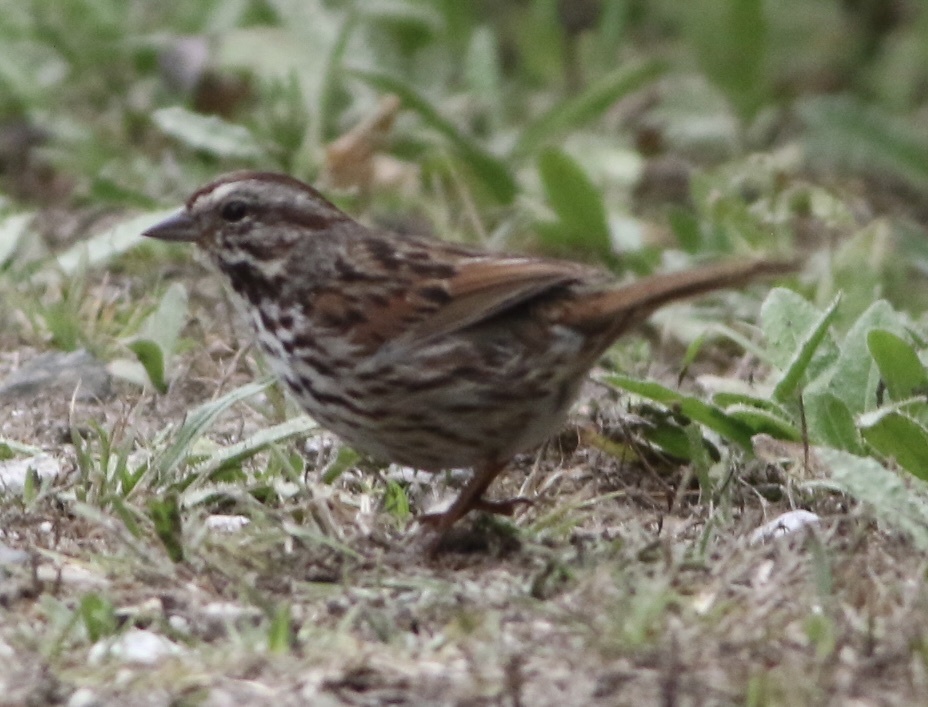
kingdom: Animalia
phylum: Chordata
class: Aves
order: Passeriformes
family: Passerellidae
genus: Melospiza
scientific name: Melospiza melodia
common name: Song sparrow
